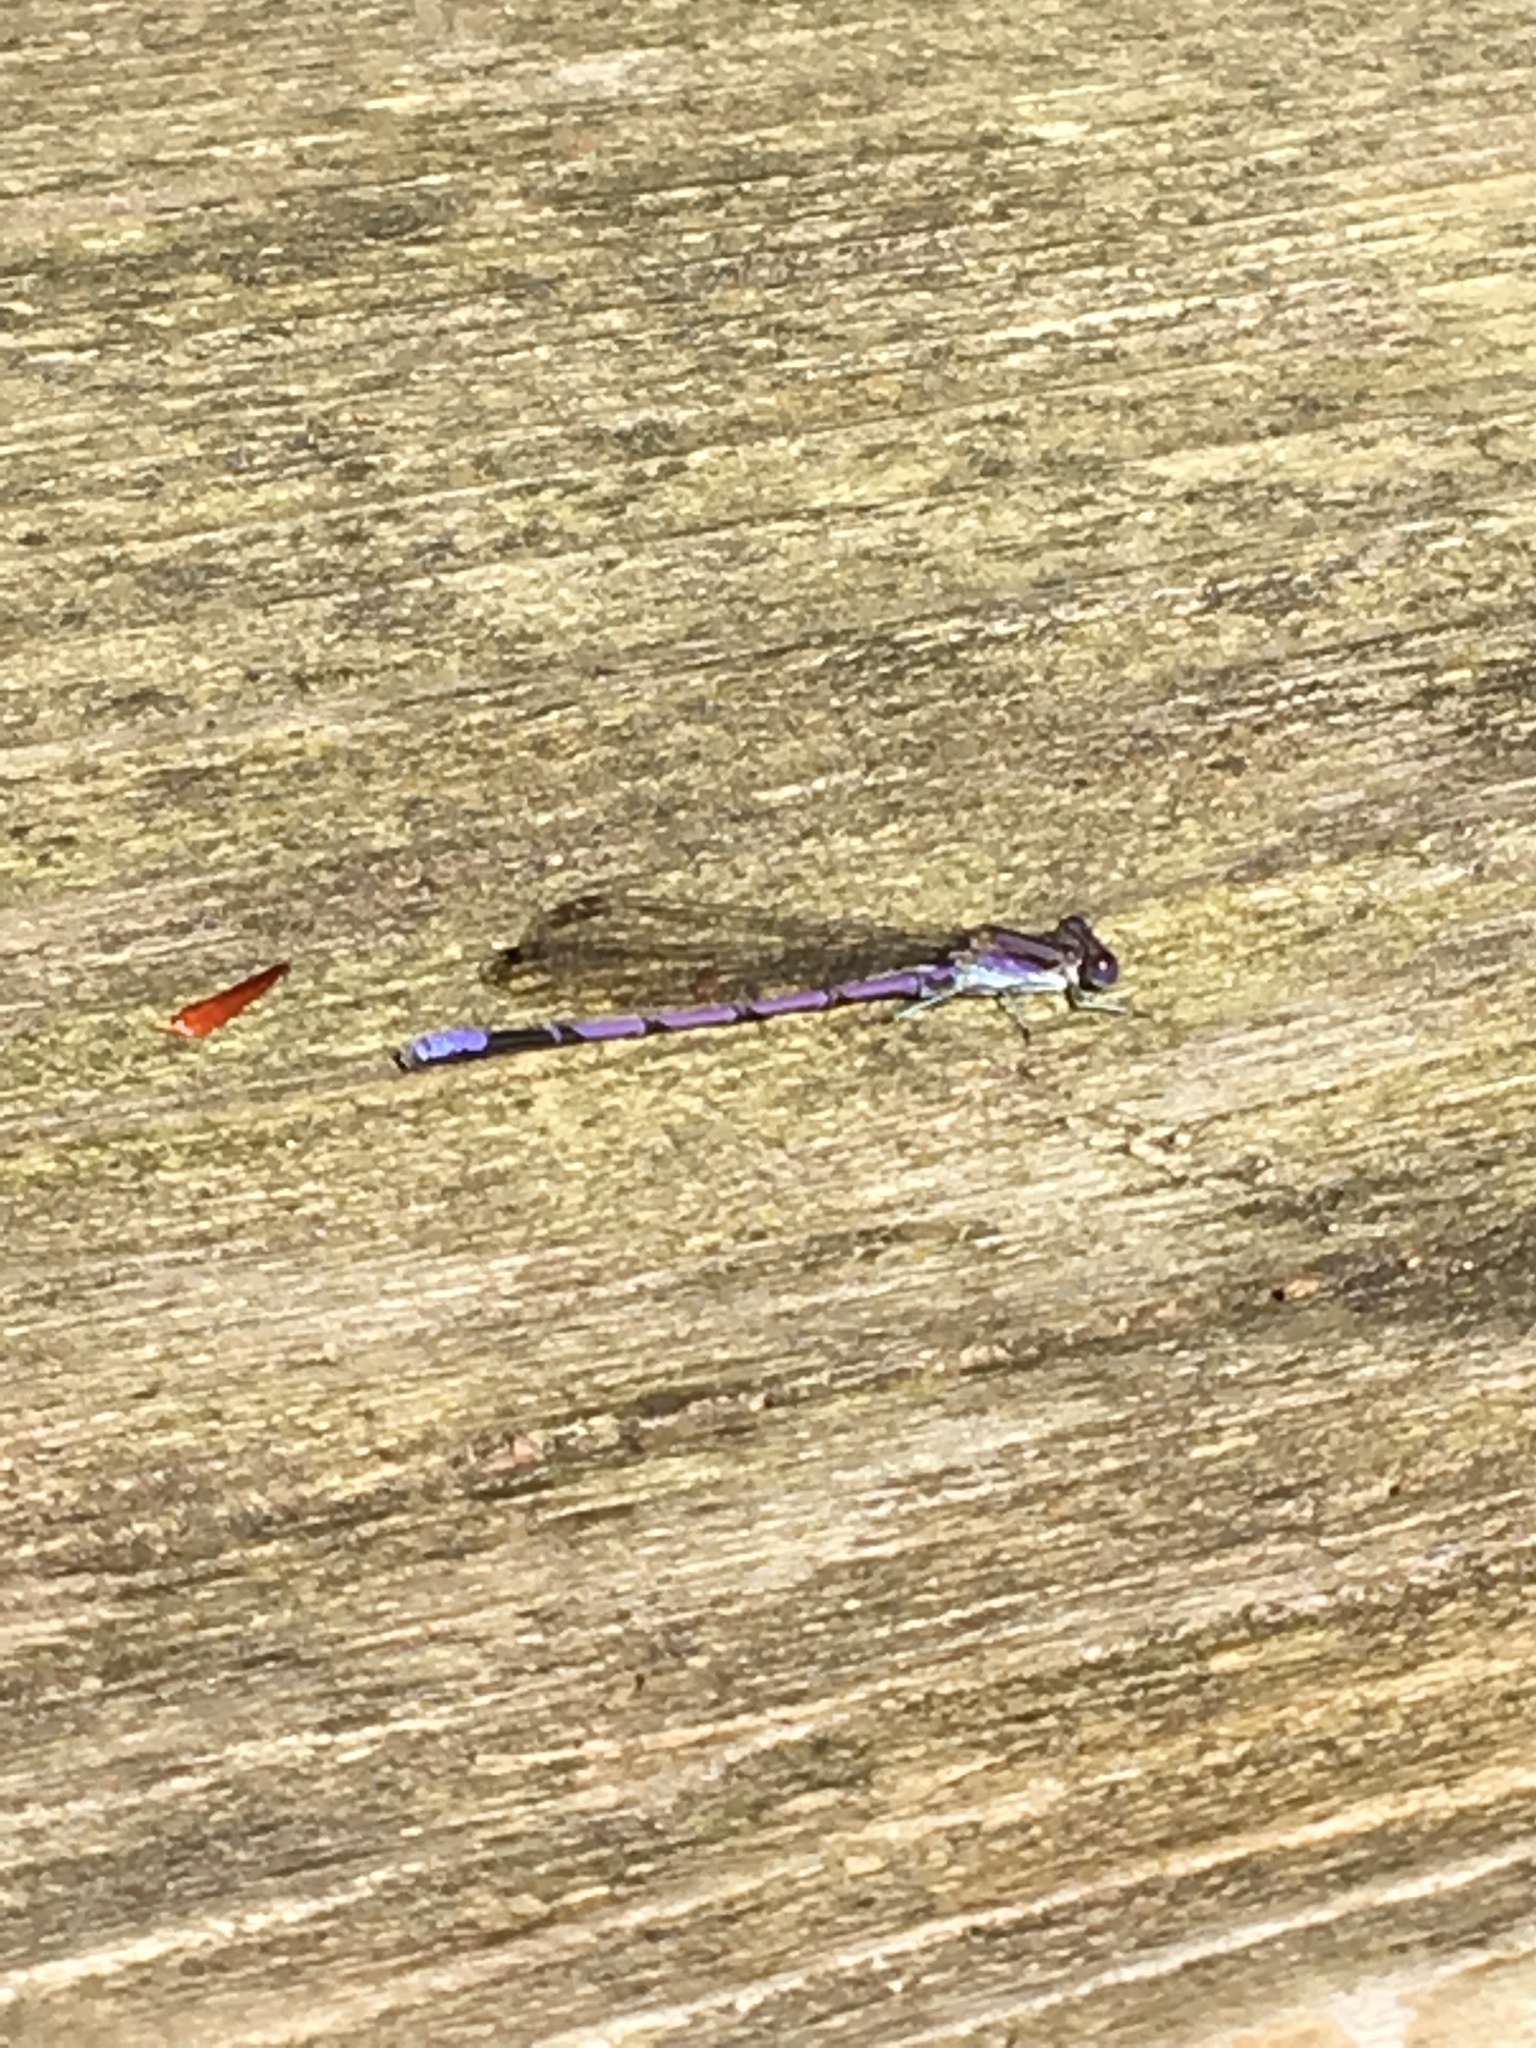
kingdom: Animalia
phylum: Arthropoda
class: Insecta
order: Odonata
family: Coenagrionidae
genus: Argia
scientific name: Argia fumipennis
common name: Variable dancer
